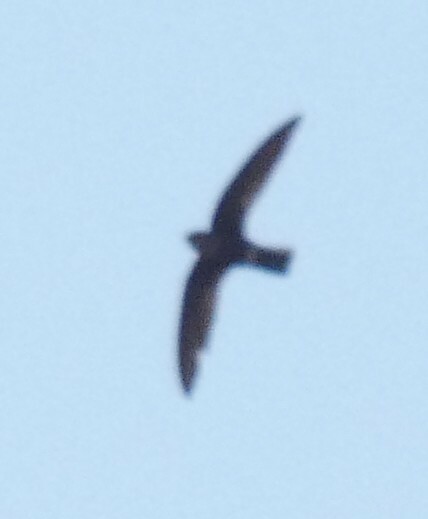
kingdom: Animalia
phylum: Chordata
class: Aves
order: Apodiformes
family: Apodidae
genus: Telacanthura
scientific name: Telacanthura ussheri
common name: Mottled spinetail
